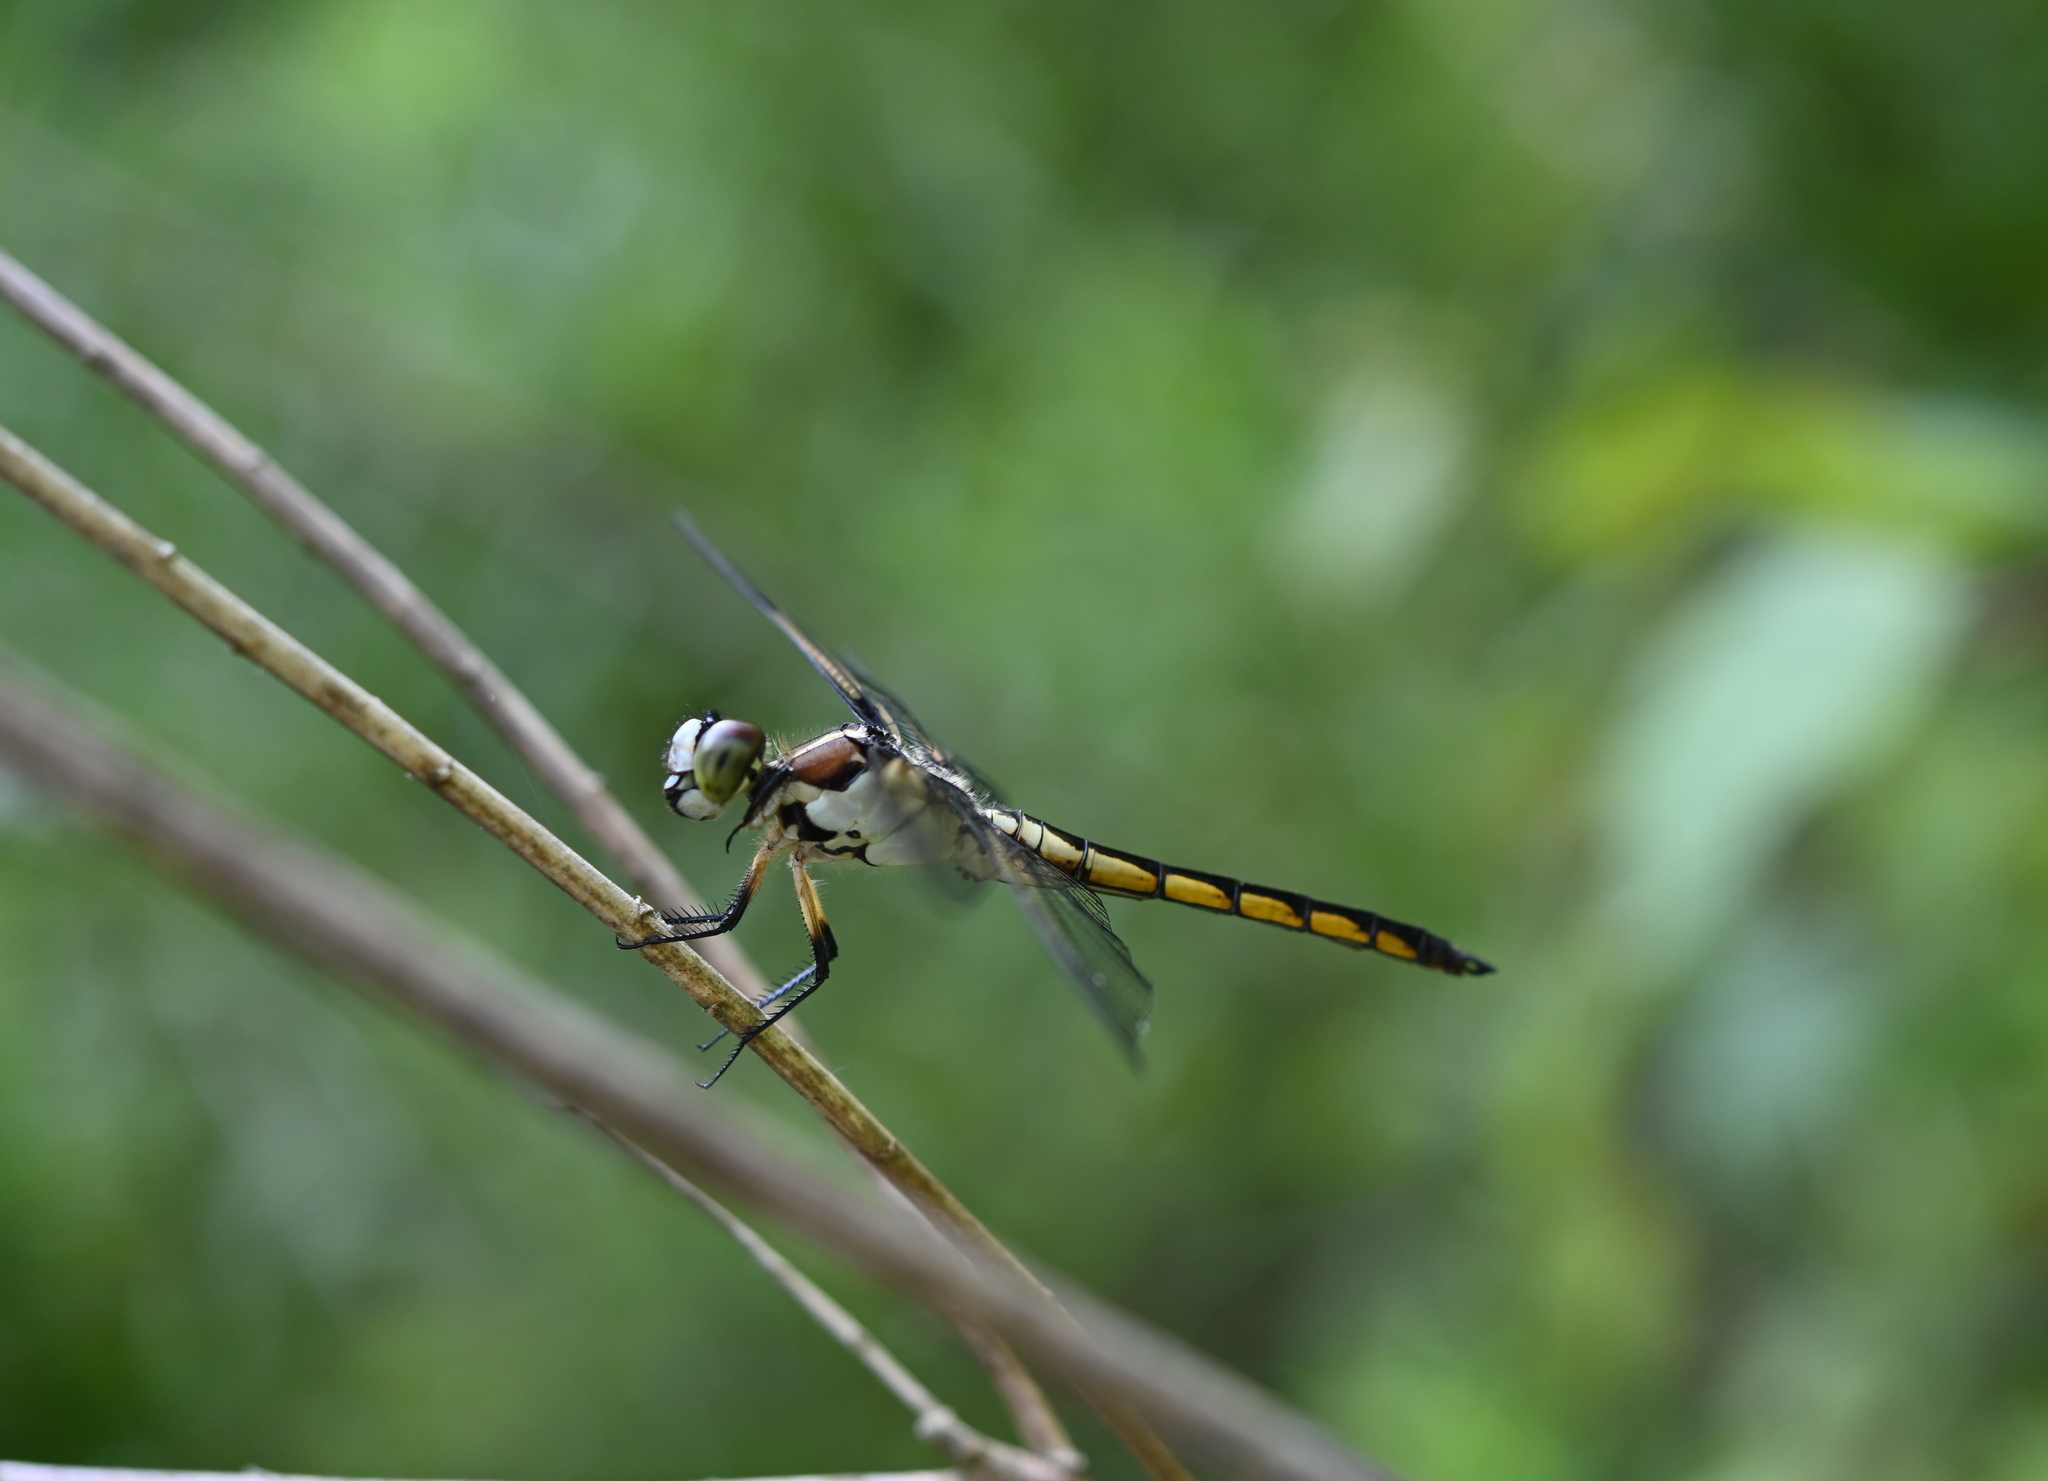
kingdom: Animalia
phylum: Arthropoda
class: Insecta
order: Odonata
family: Libellulidae
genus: Libellula
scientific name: Libellula vibrans
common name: Great blue skimmer
